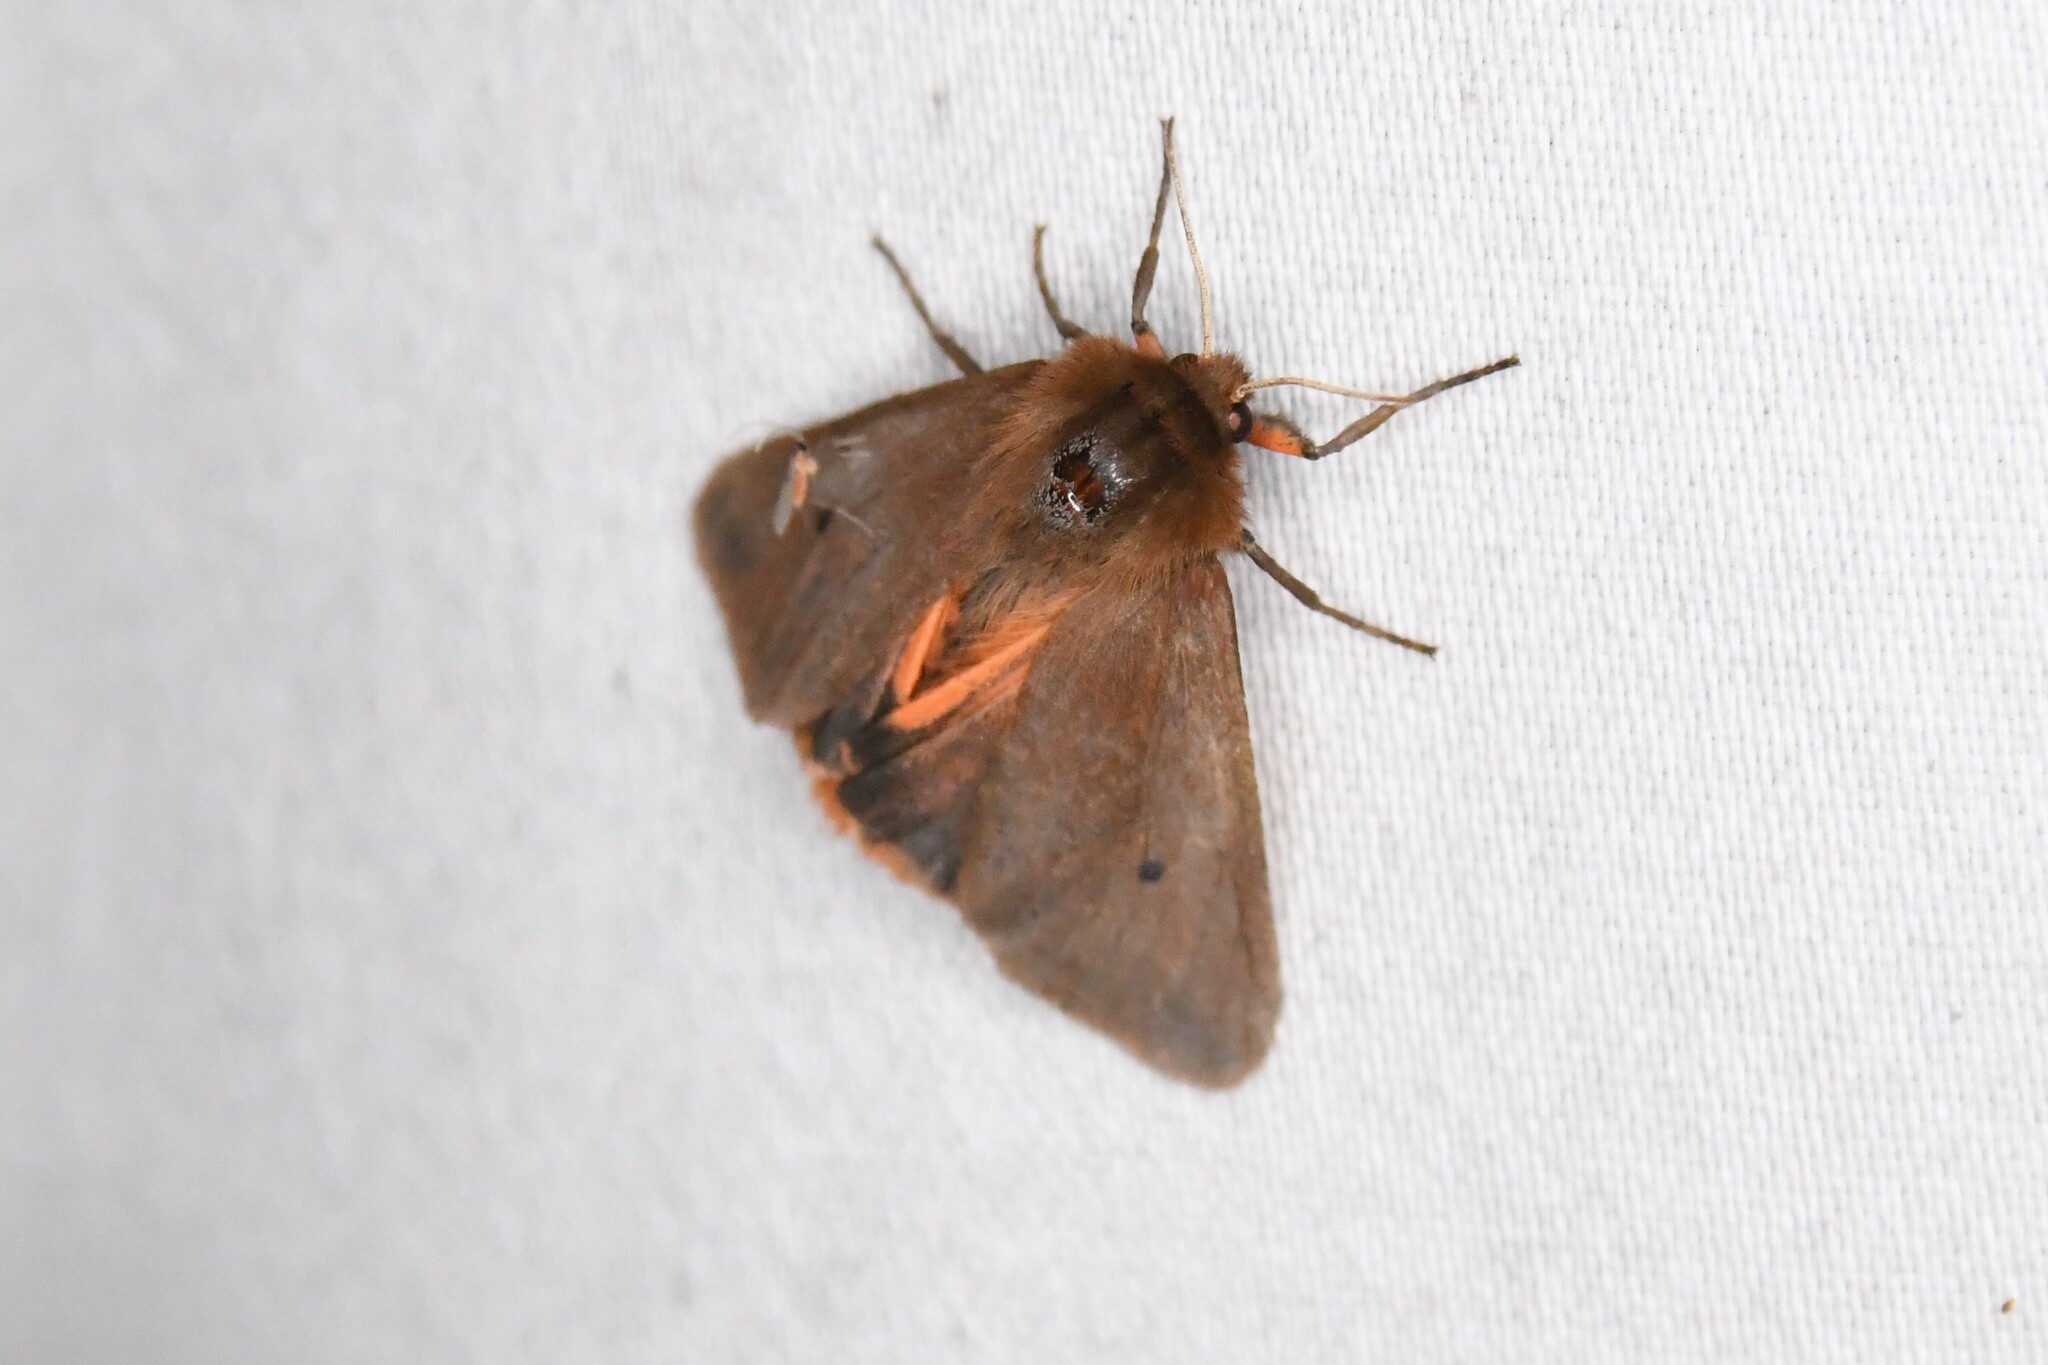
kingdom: Animalia
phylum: Arthropoda
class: Insecta
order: Lepidoptera
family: Erebidae
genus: Phragmatobia
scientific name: Phragmatobia fuliginosa
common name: Ruby tiger
